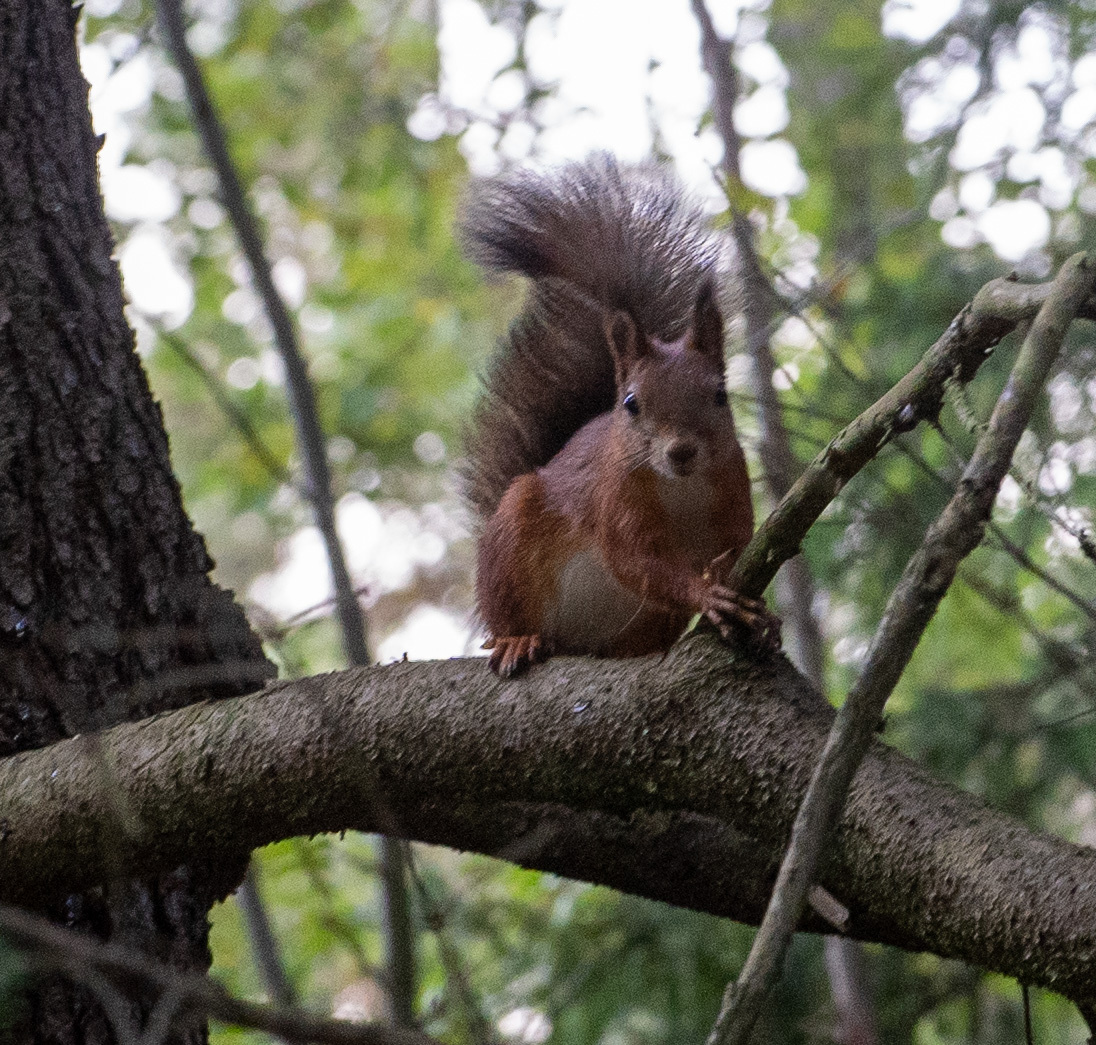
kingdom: Animalia
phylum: Chordata
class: Mammalia
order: Rodentia
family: Sciuridae
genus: Sciurus
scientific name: Sciurus vulgaris
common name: Eurasian red squirrel
